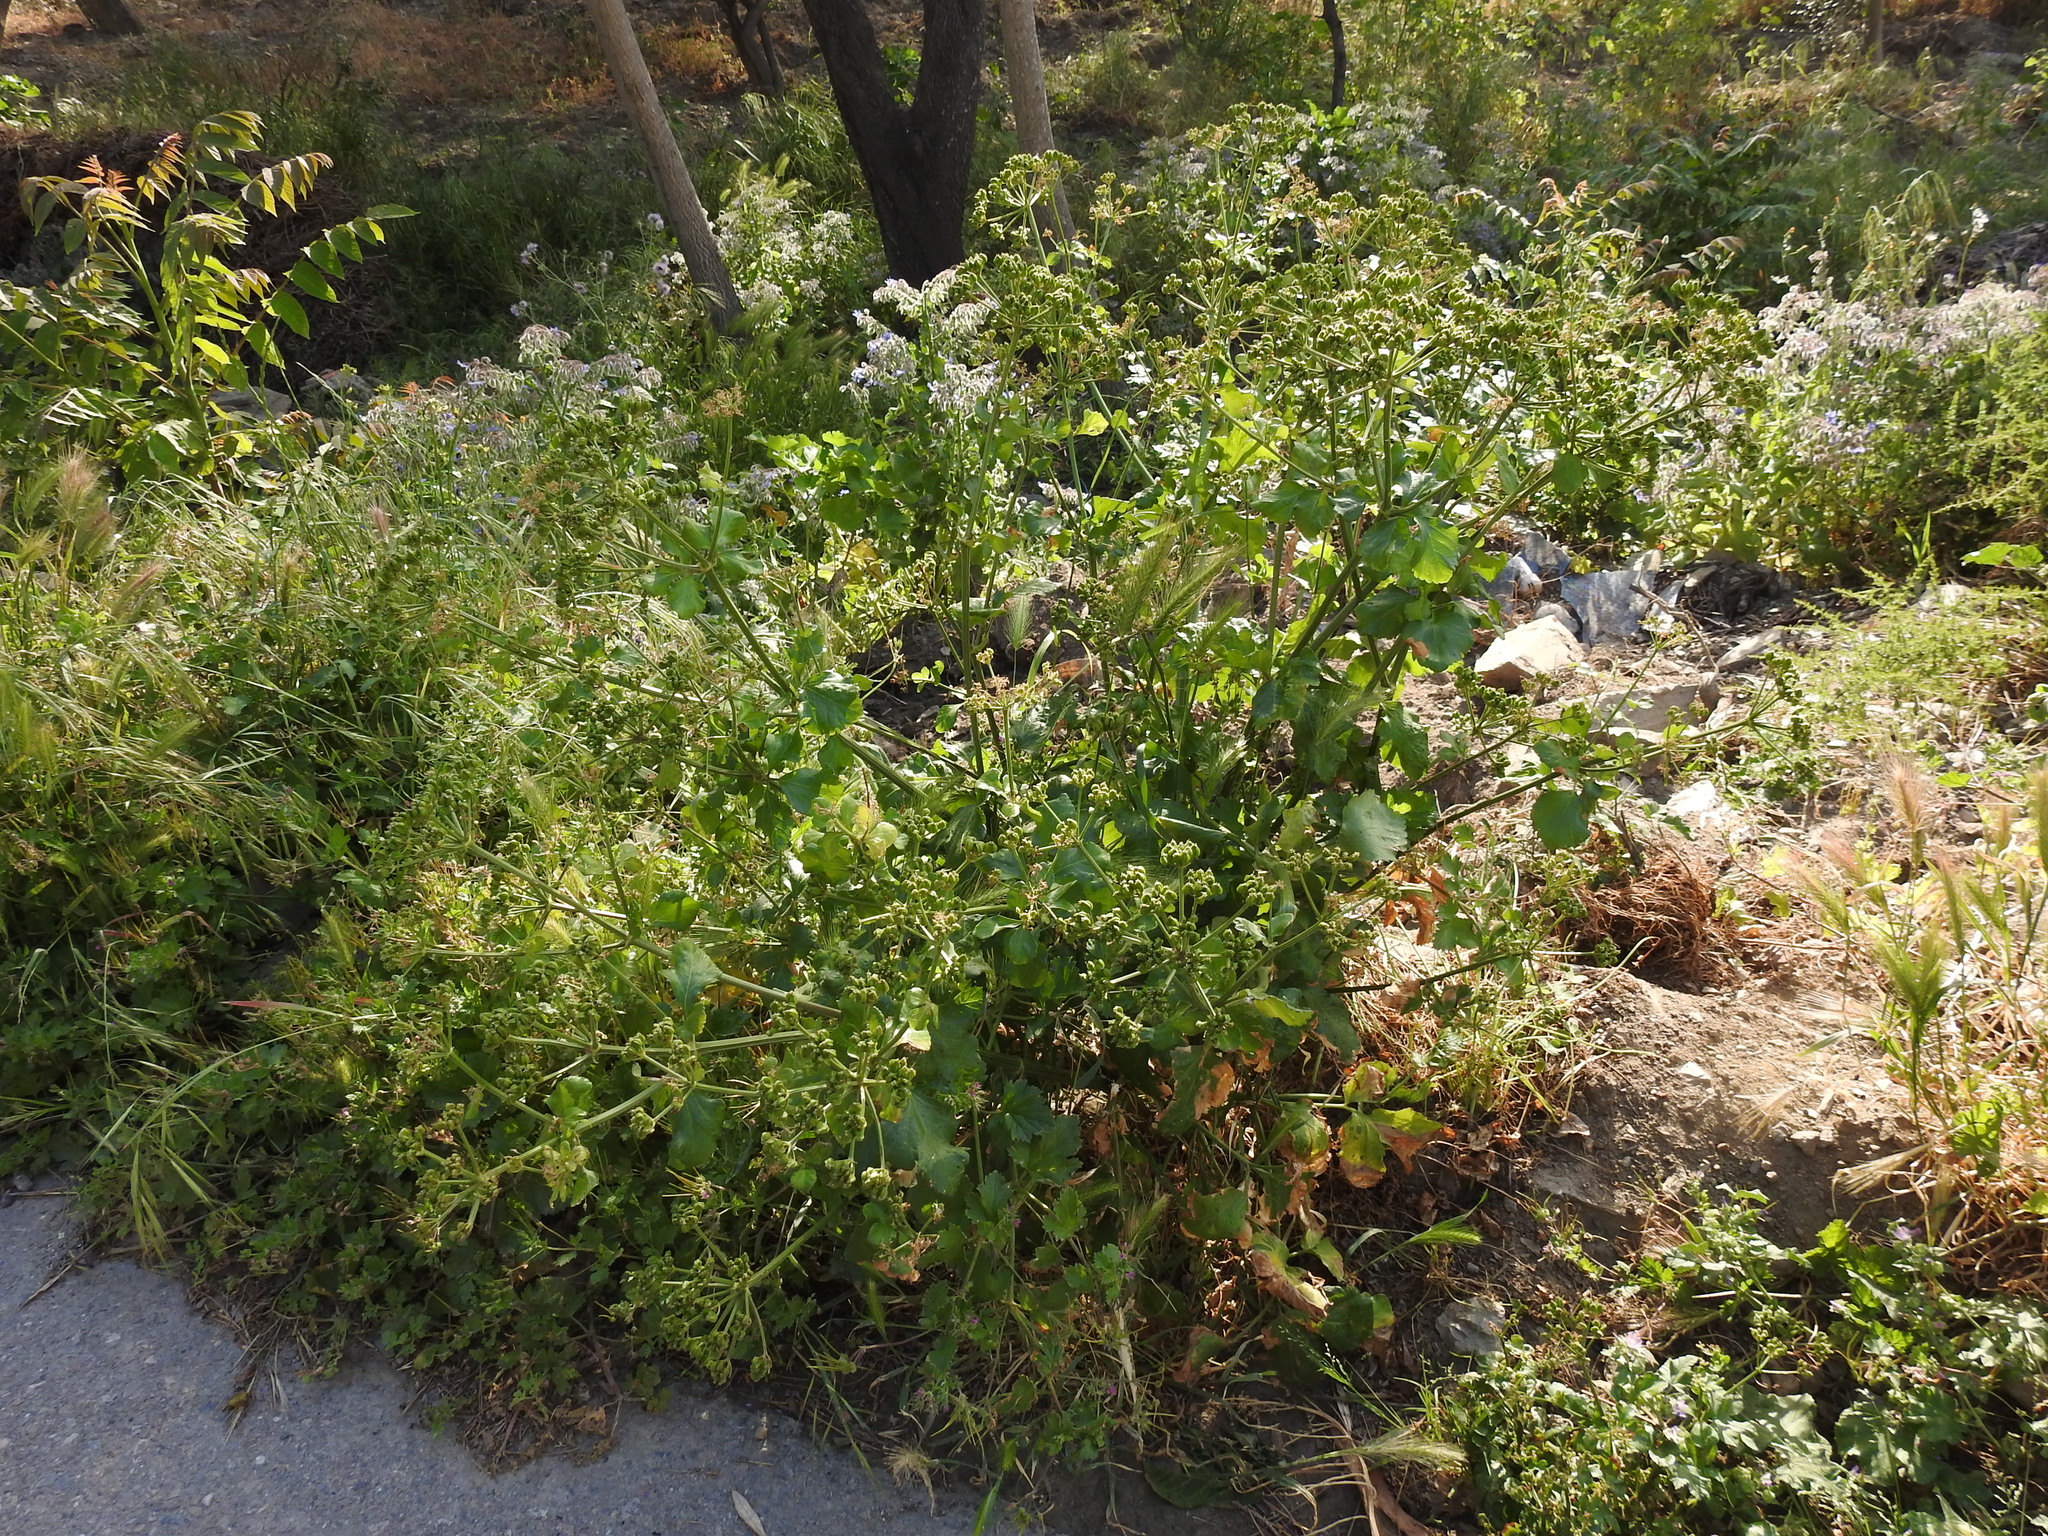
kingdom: Plantae
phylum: Tracheophyta
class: Magnoliopsida
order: Apiales
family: Apiaceae
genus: Smyrnium
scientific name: Smyrnium olusatrum
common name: Alexanders
